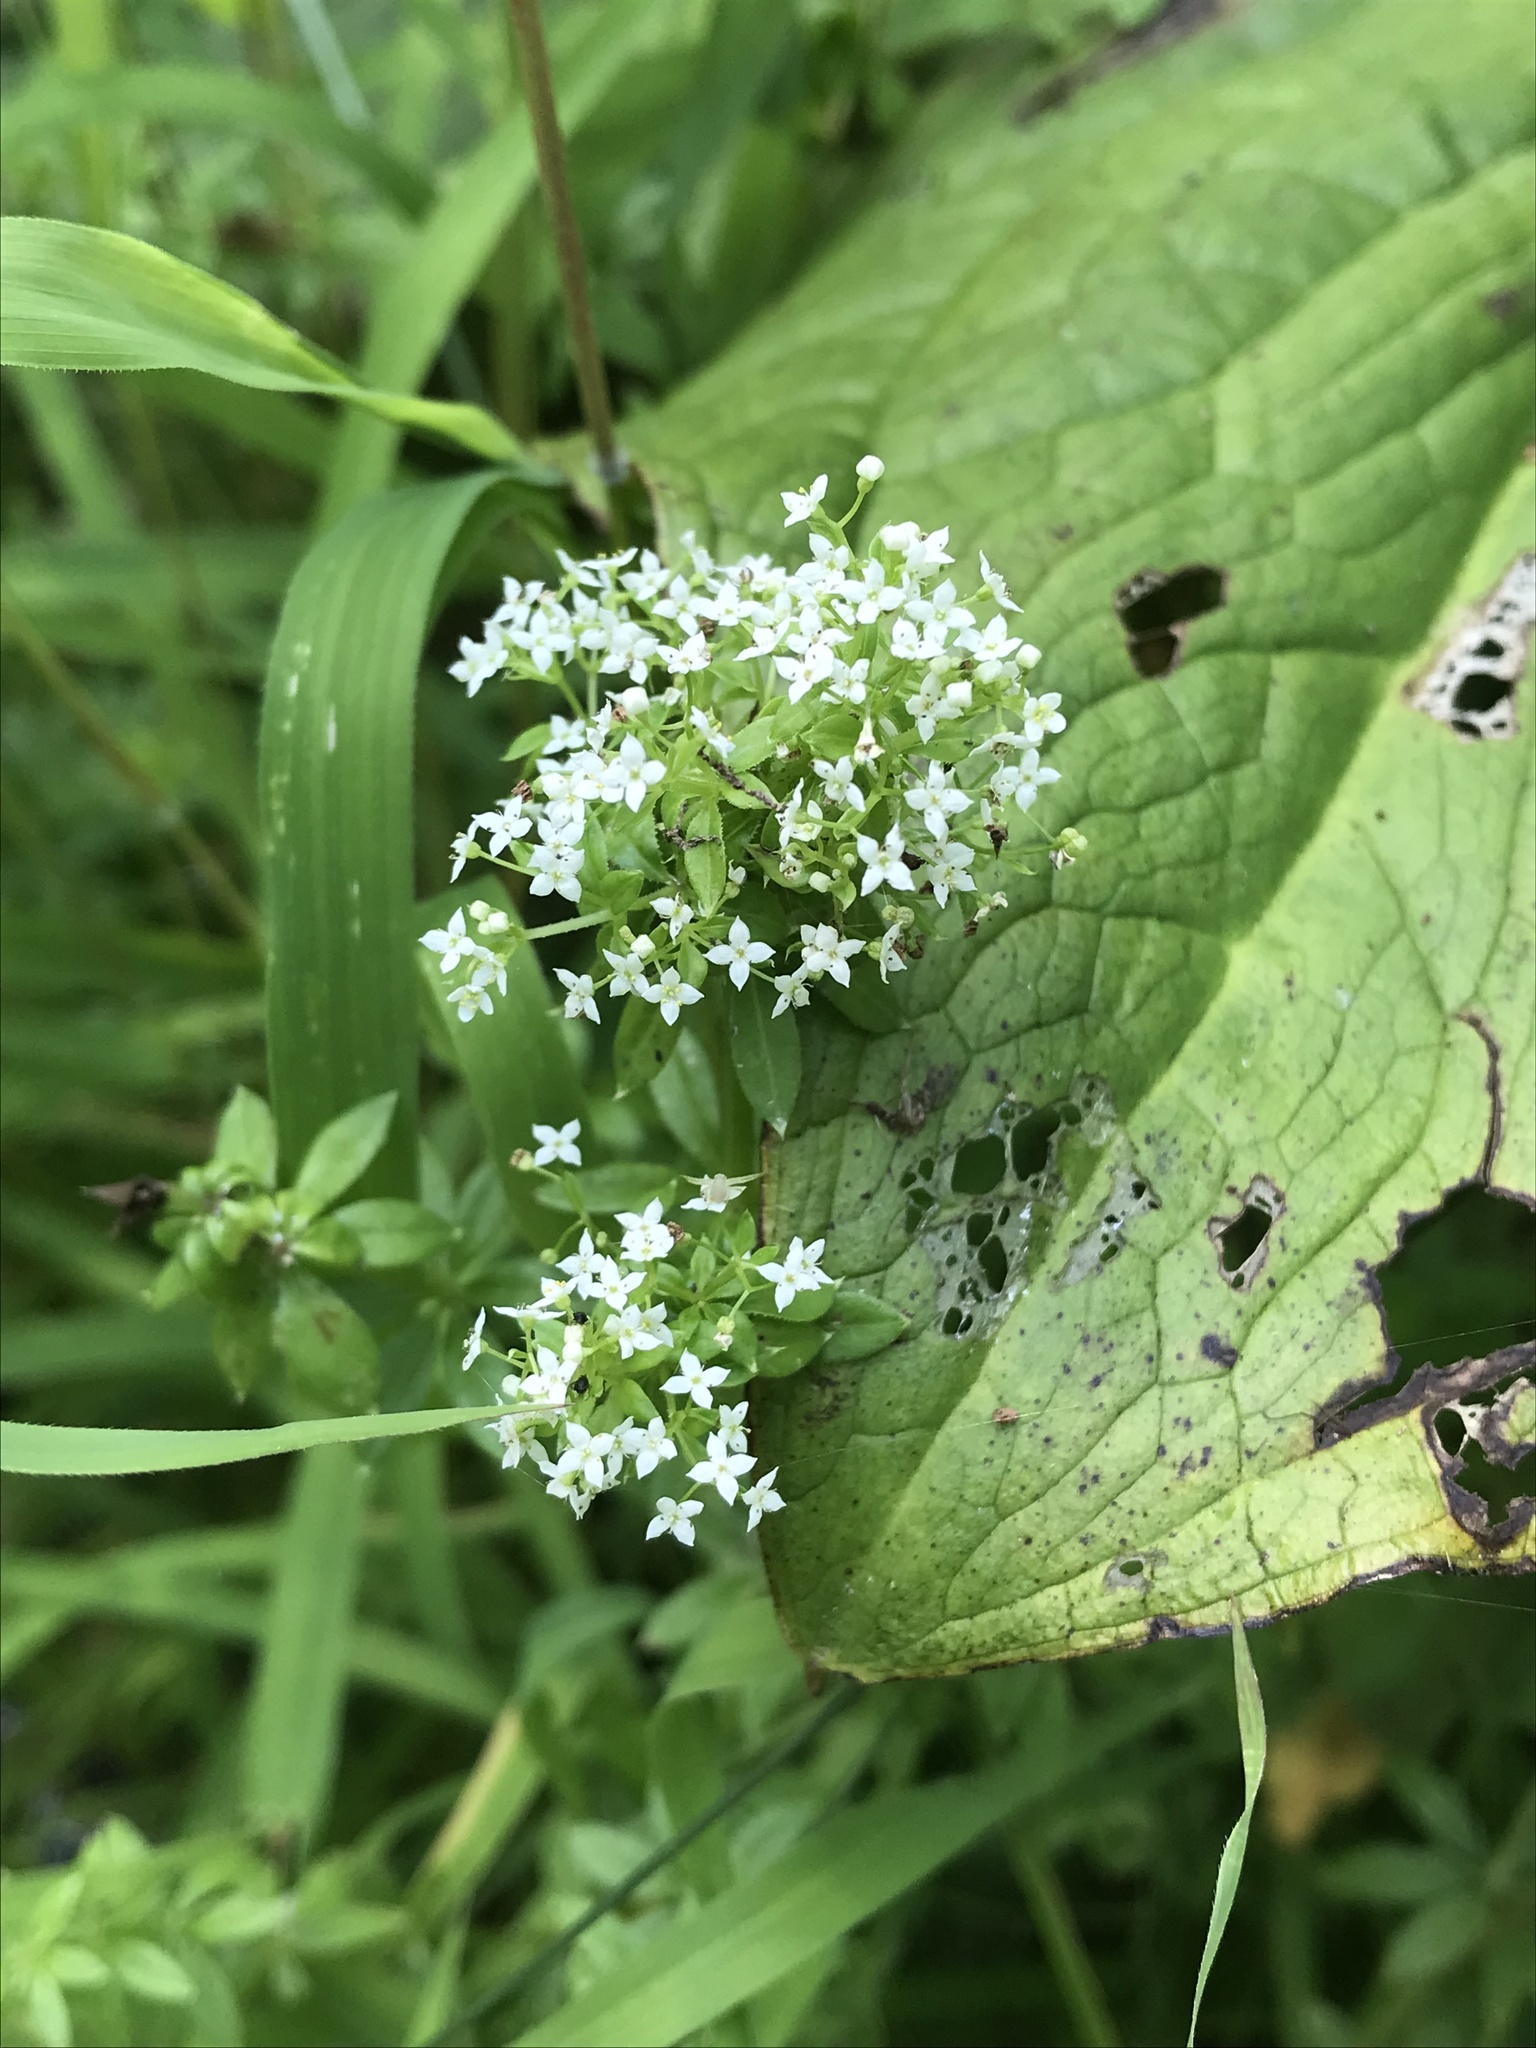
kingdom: Plantae
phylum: Tracheophyta
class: Magnoliopsida
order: Gentianales
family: Rubiaceae
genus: Galium
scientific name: Galium asprellum
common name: Rough bedstraw
